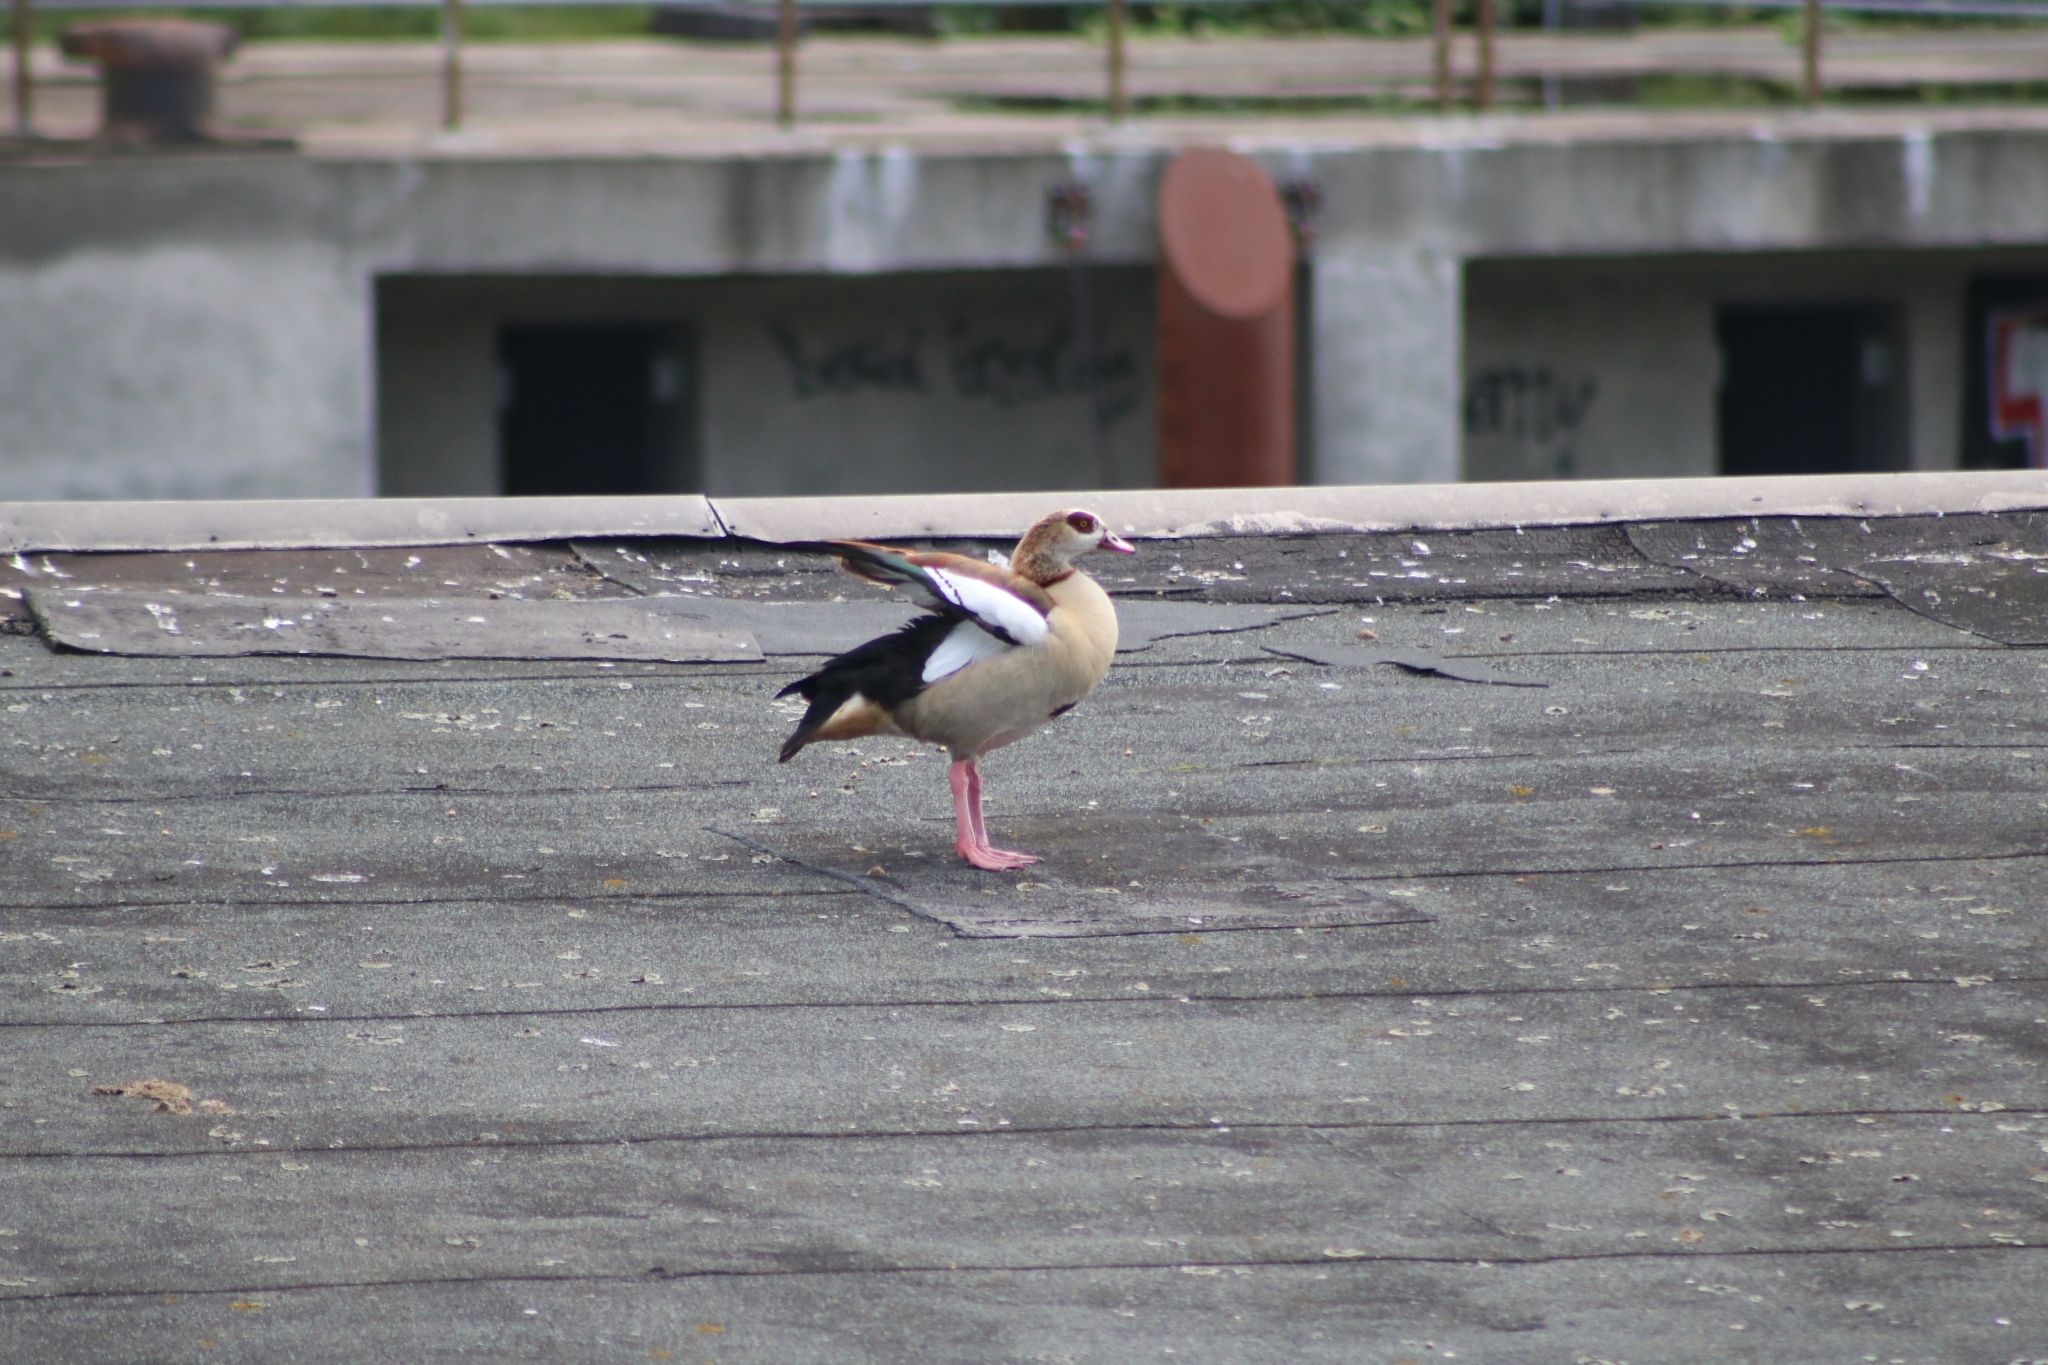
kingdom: Animalia
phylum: Chordata
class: Aves
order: Anseriformes
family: Anatidae
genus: Alopochen
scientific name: Alopochen aegyptiaca
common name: Egyptian goose
